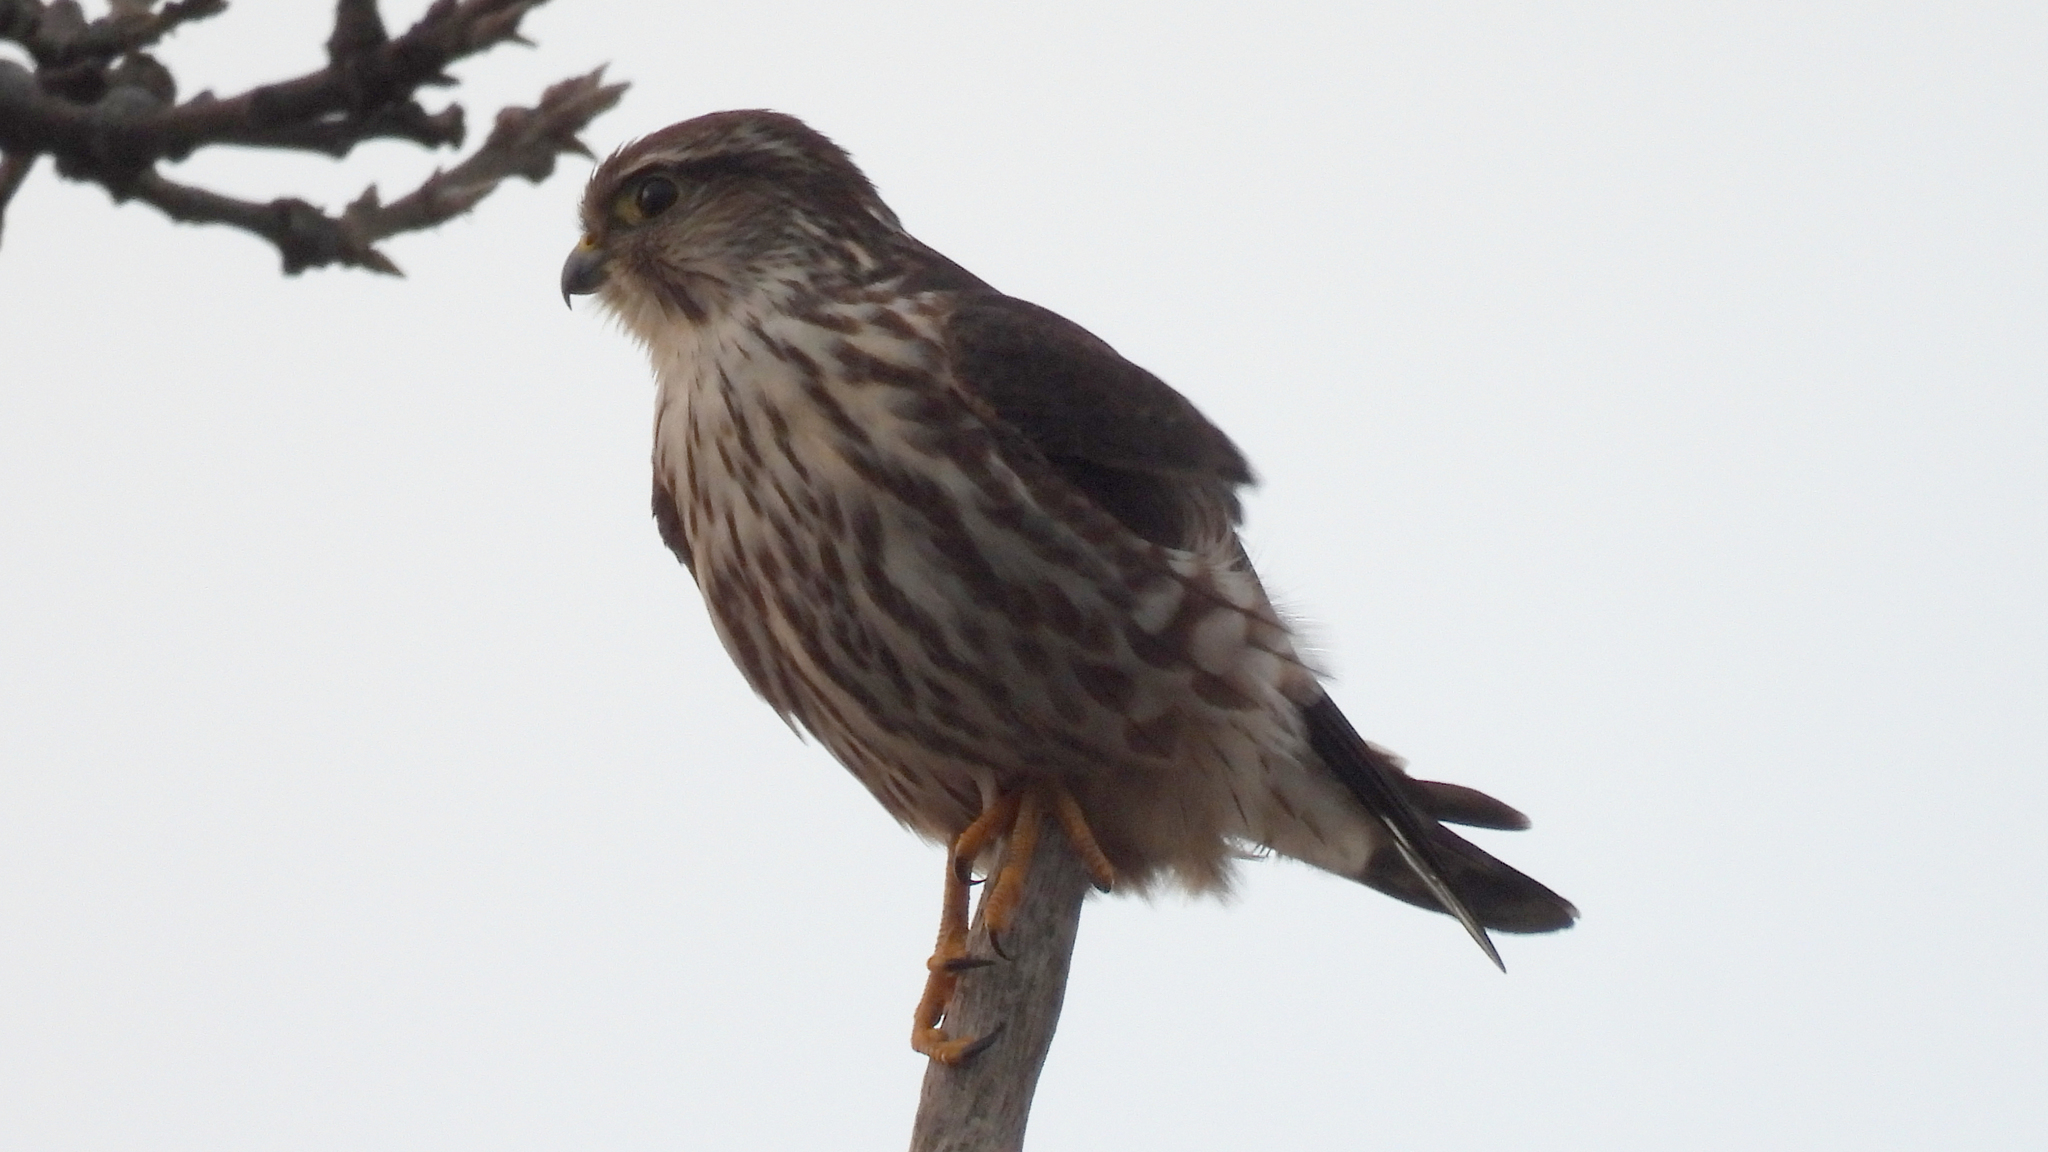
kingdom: Animalia
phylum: Chordata
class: Aves
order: Falconiformes
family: Falconidae
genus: Falco
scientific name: Falco columbarius
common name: Merlin
